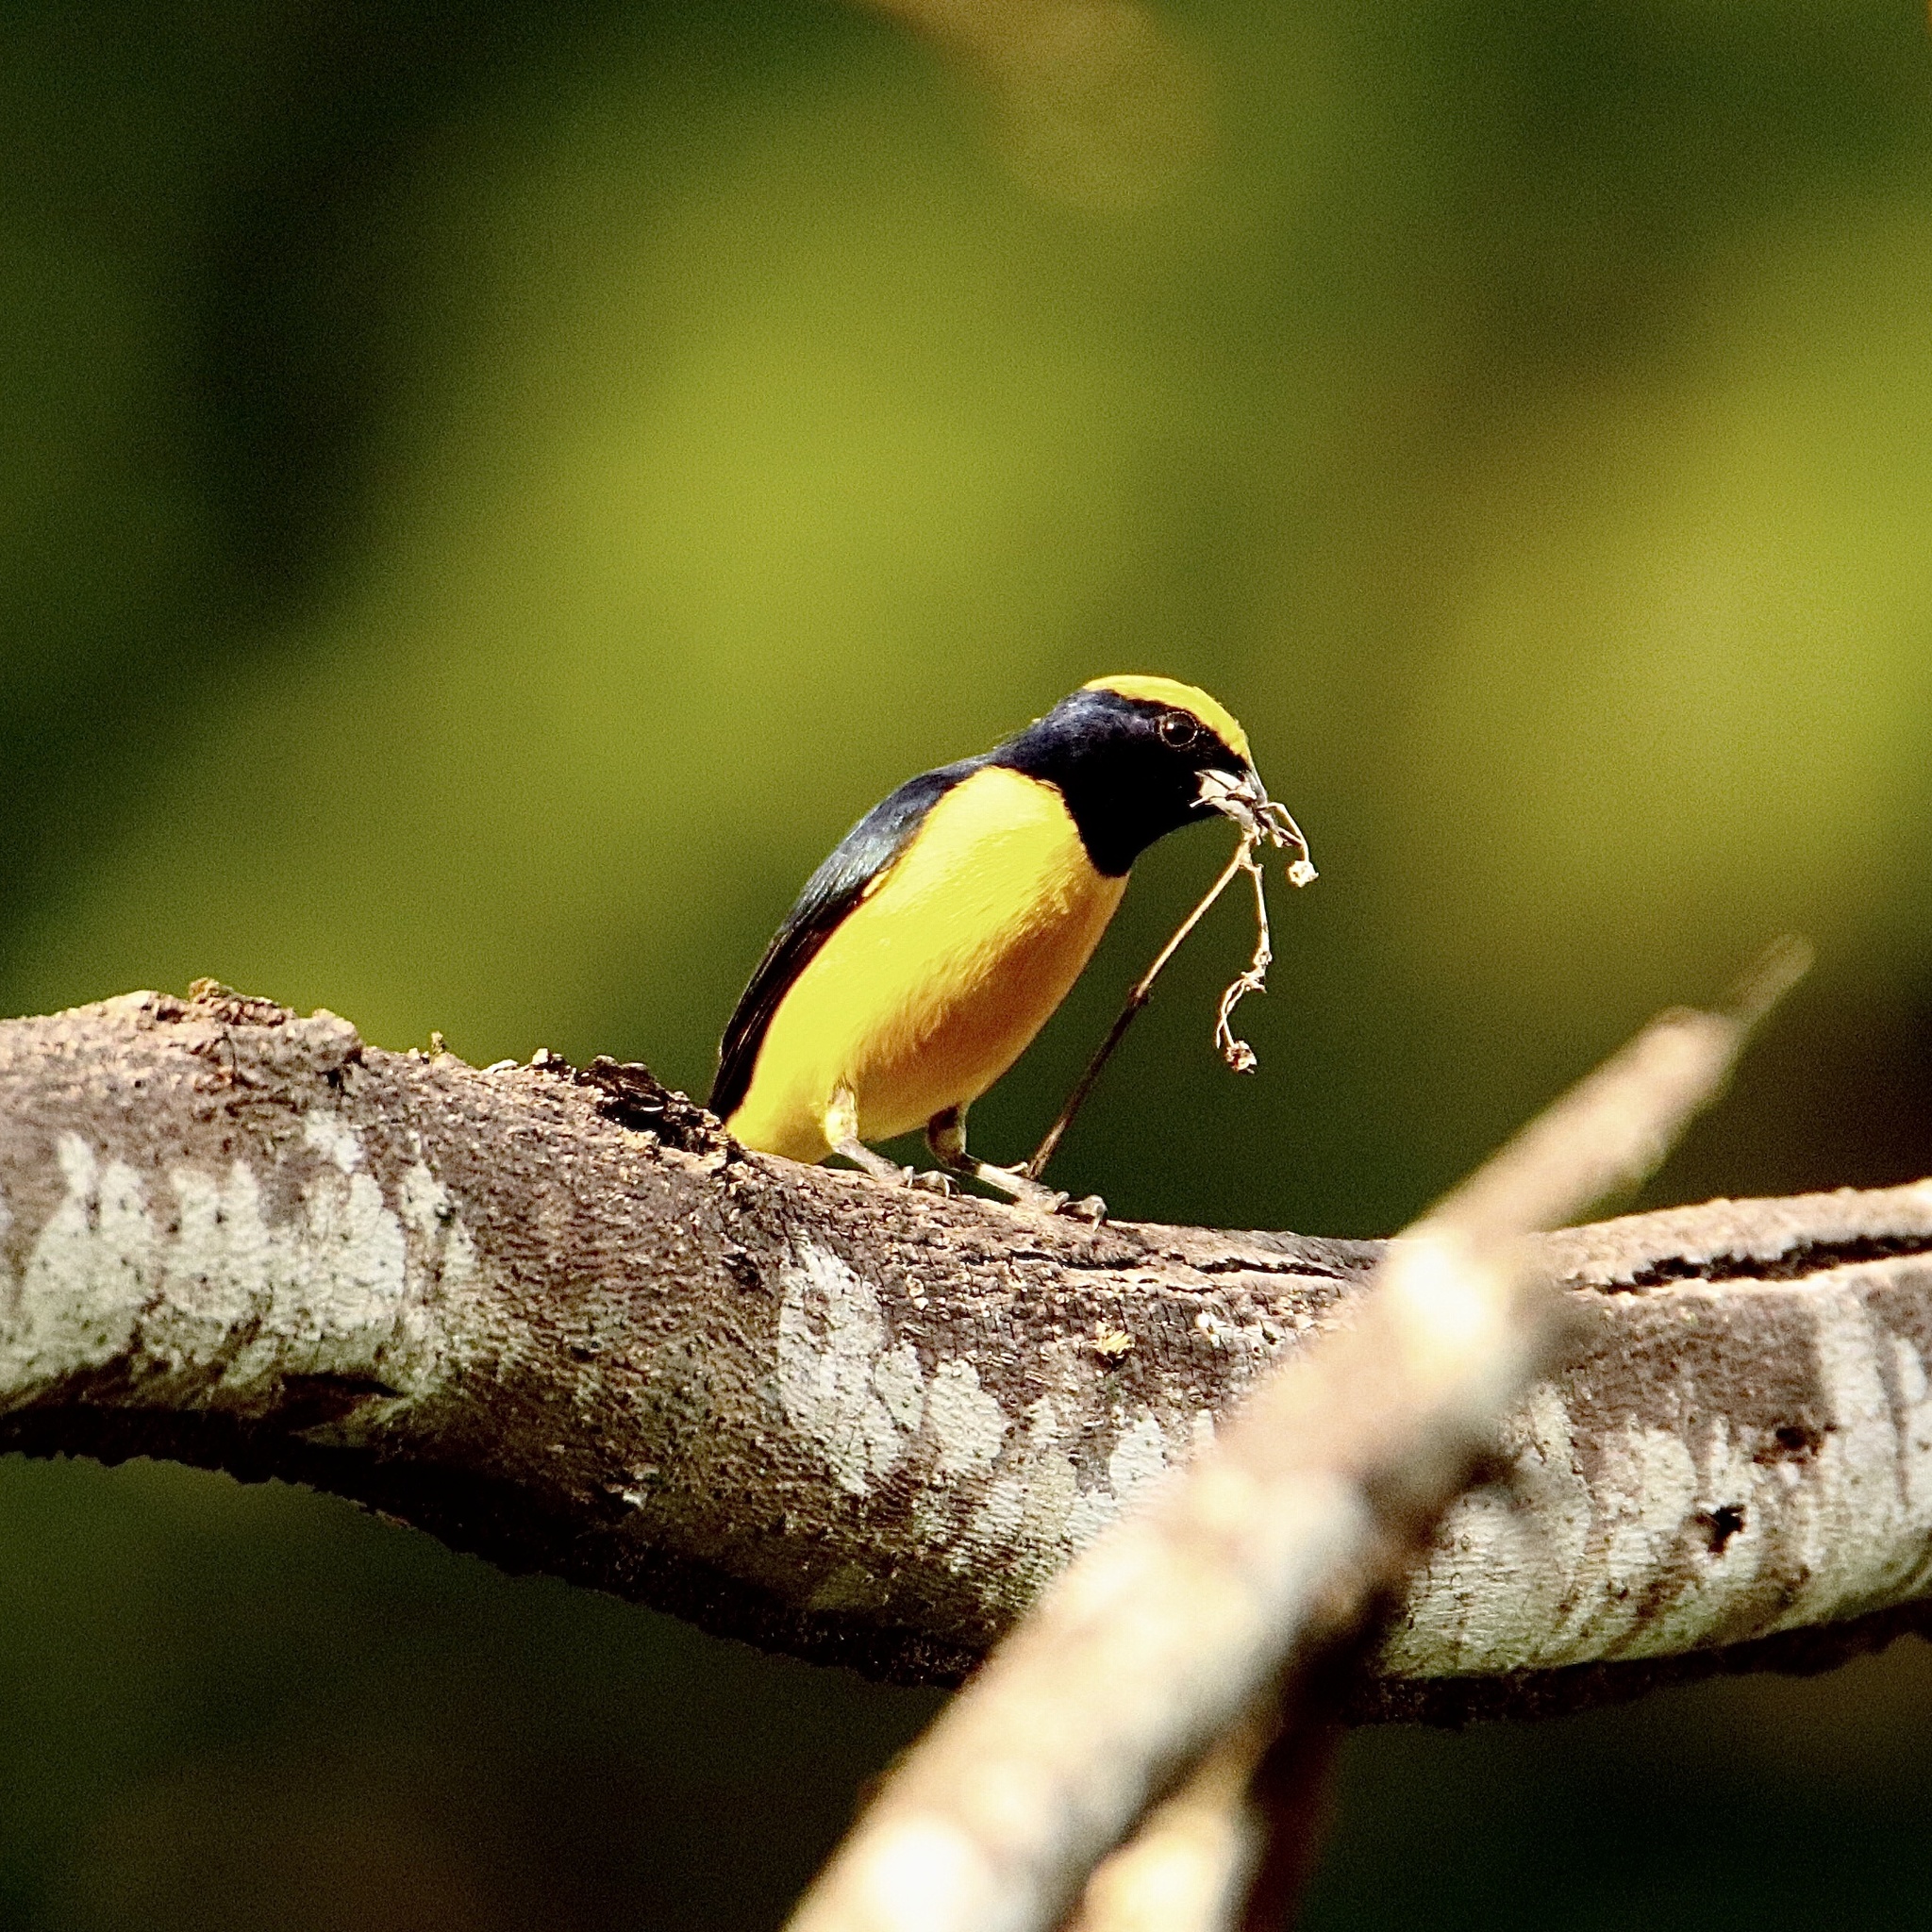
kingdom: Animalia
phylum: Chordata
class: Aves
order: Passeriformes
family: Fringillidae
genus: Euphonia
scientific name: Euphonia luteicapilla
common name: Yellow-crowned euphonia
